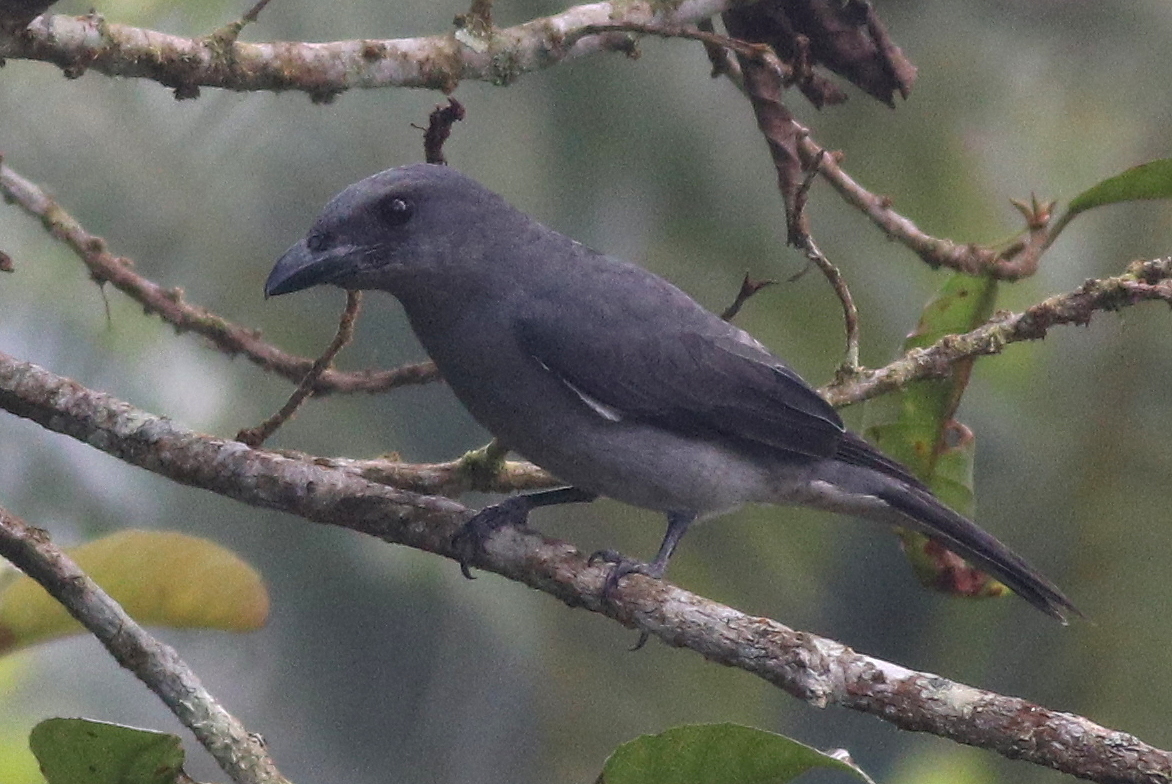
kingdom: Animalia
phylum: Chordata
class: Aves
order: Passeriformes
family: Campephagidae
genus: Coracina
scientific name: Coracina macei
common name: Large cuckooshrike
